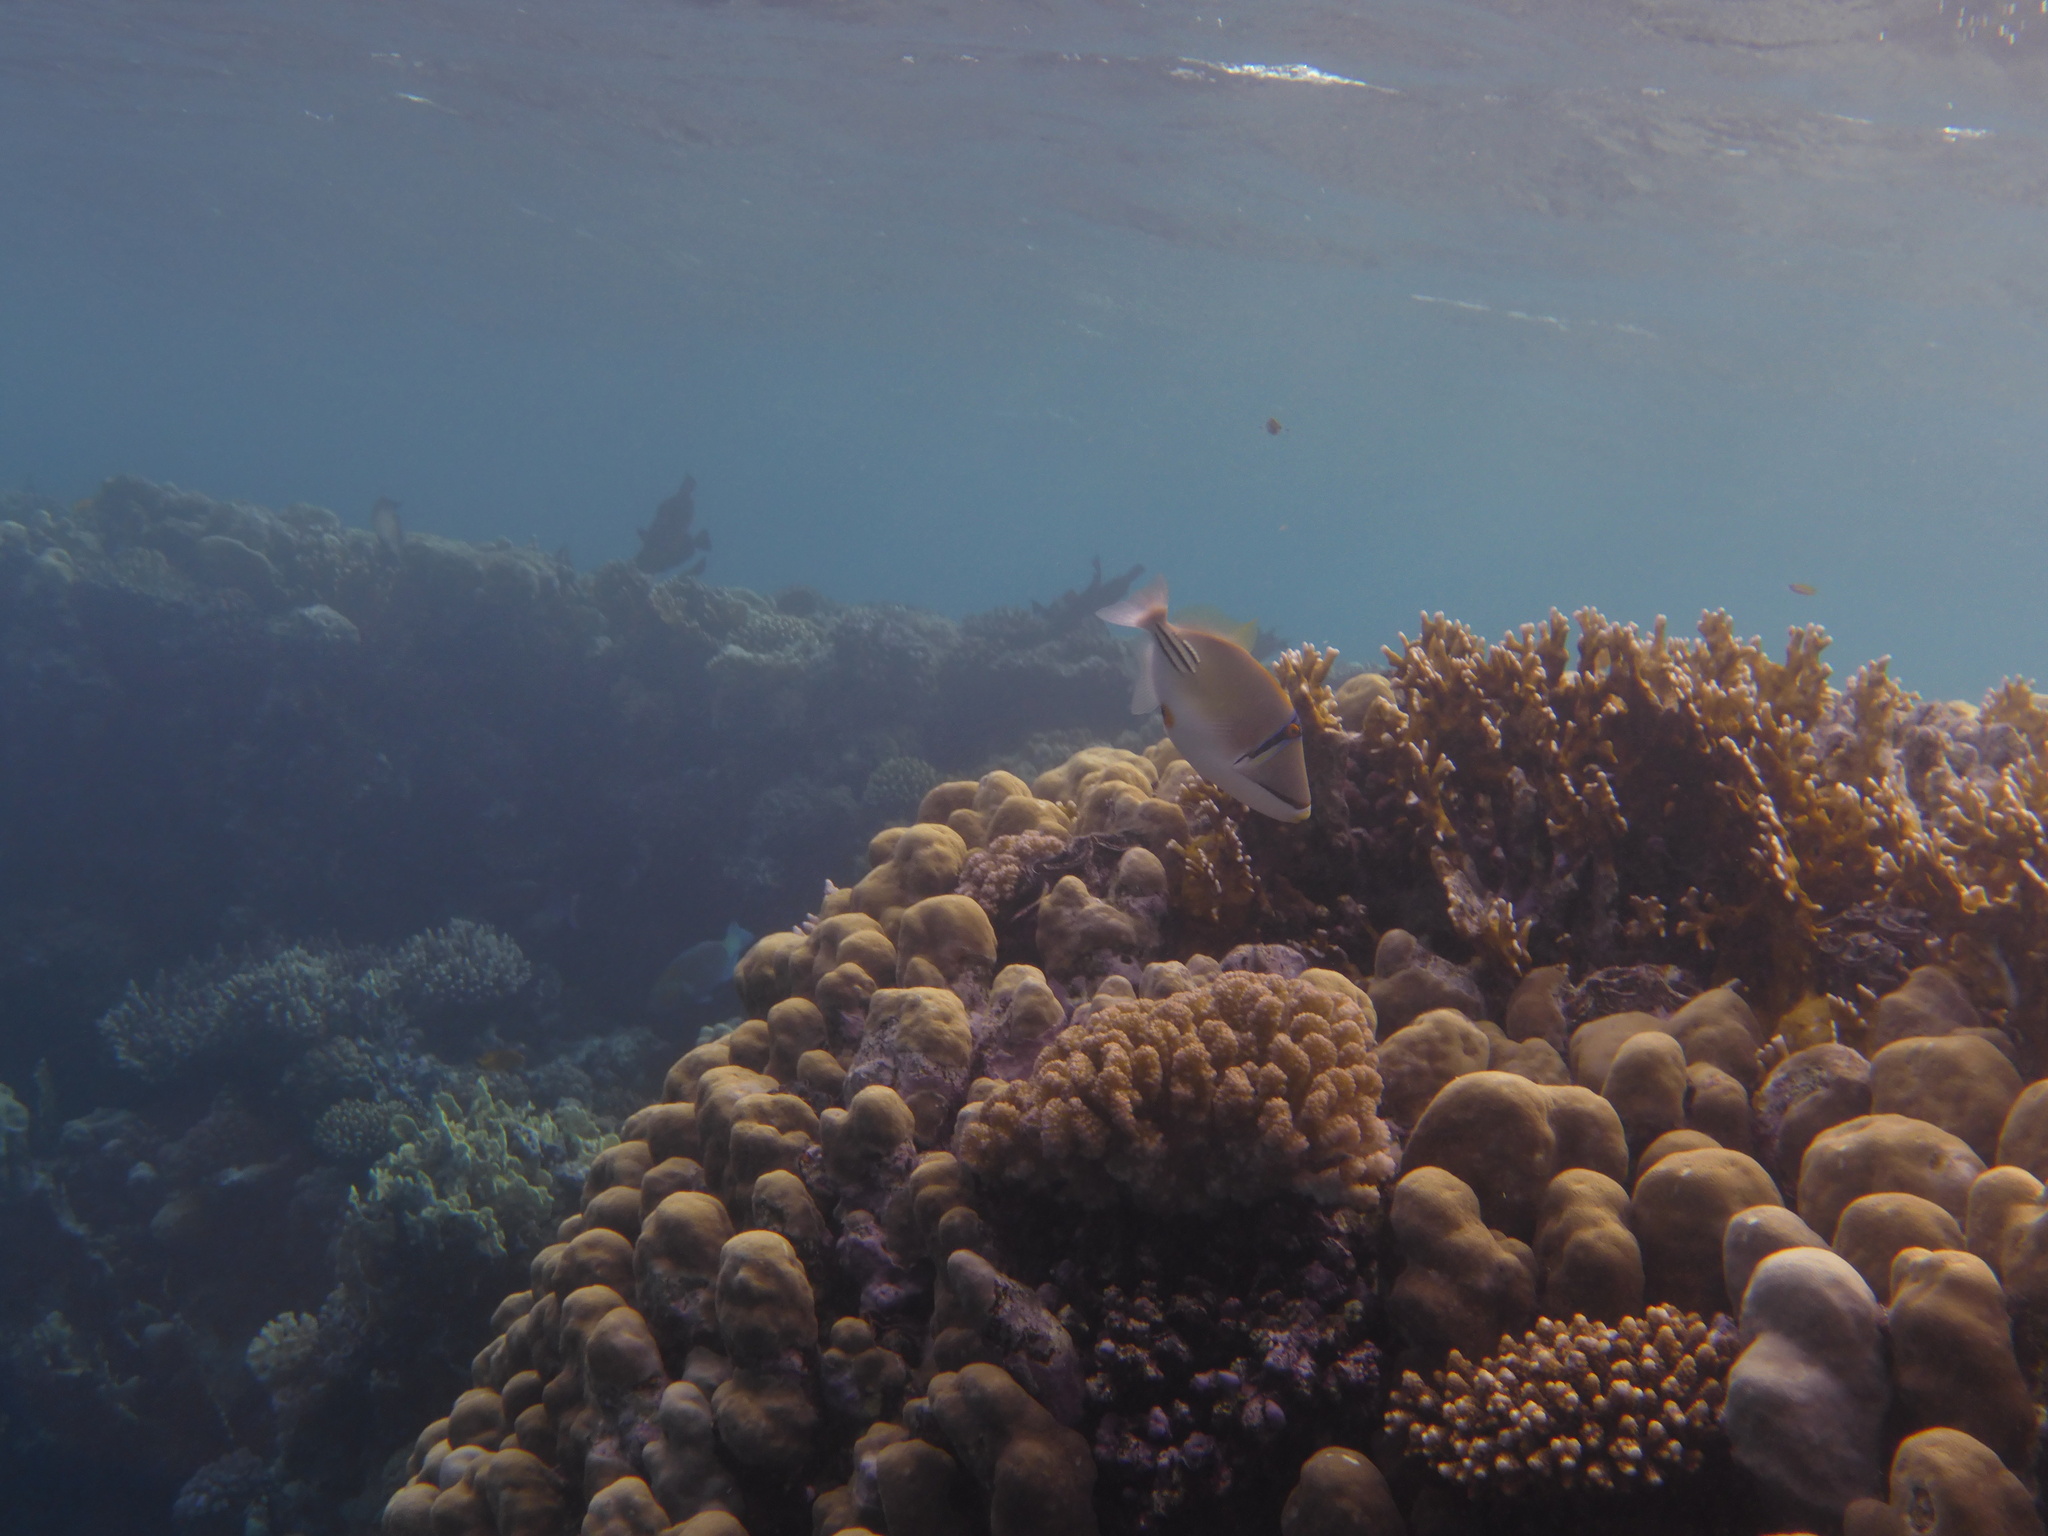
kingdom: Animalia
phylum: Chordata
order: Tetraodontiformes
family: Balistidae
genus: Rhinecanthus
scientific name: Rhinecanthus assasi
